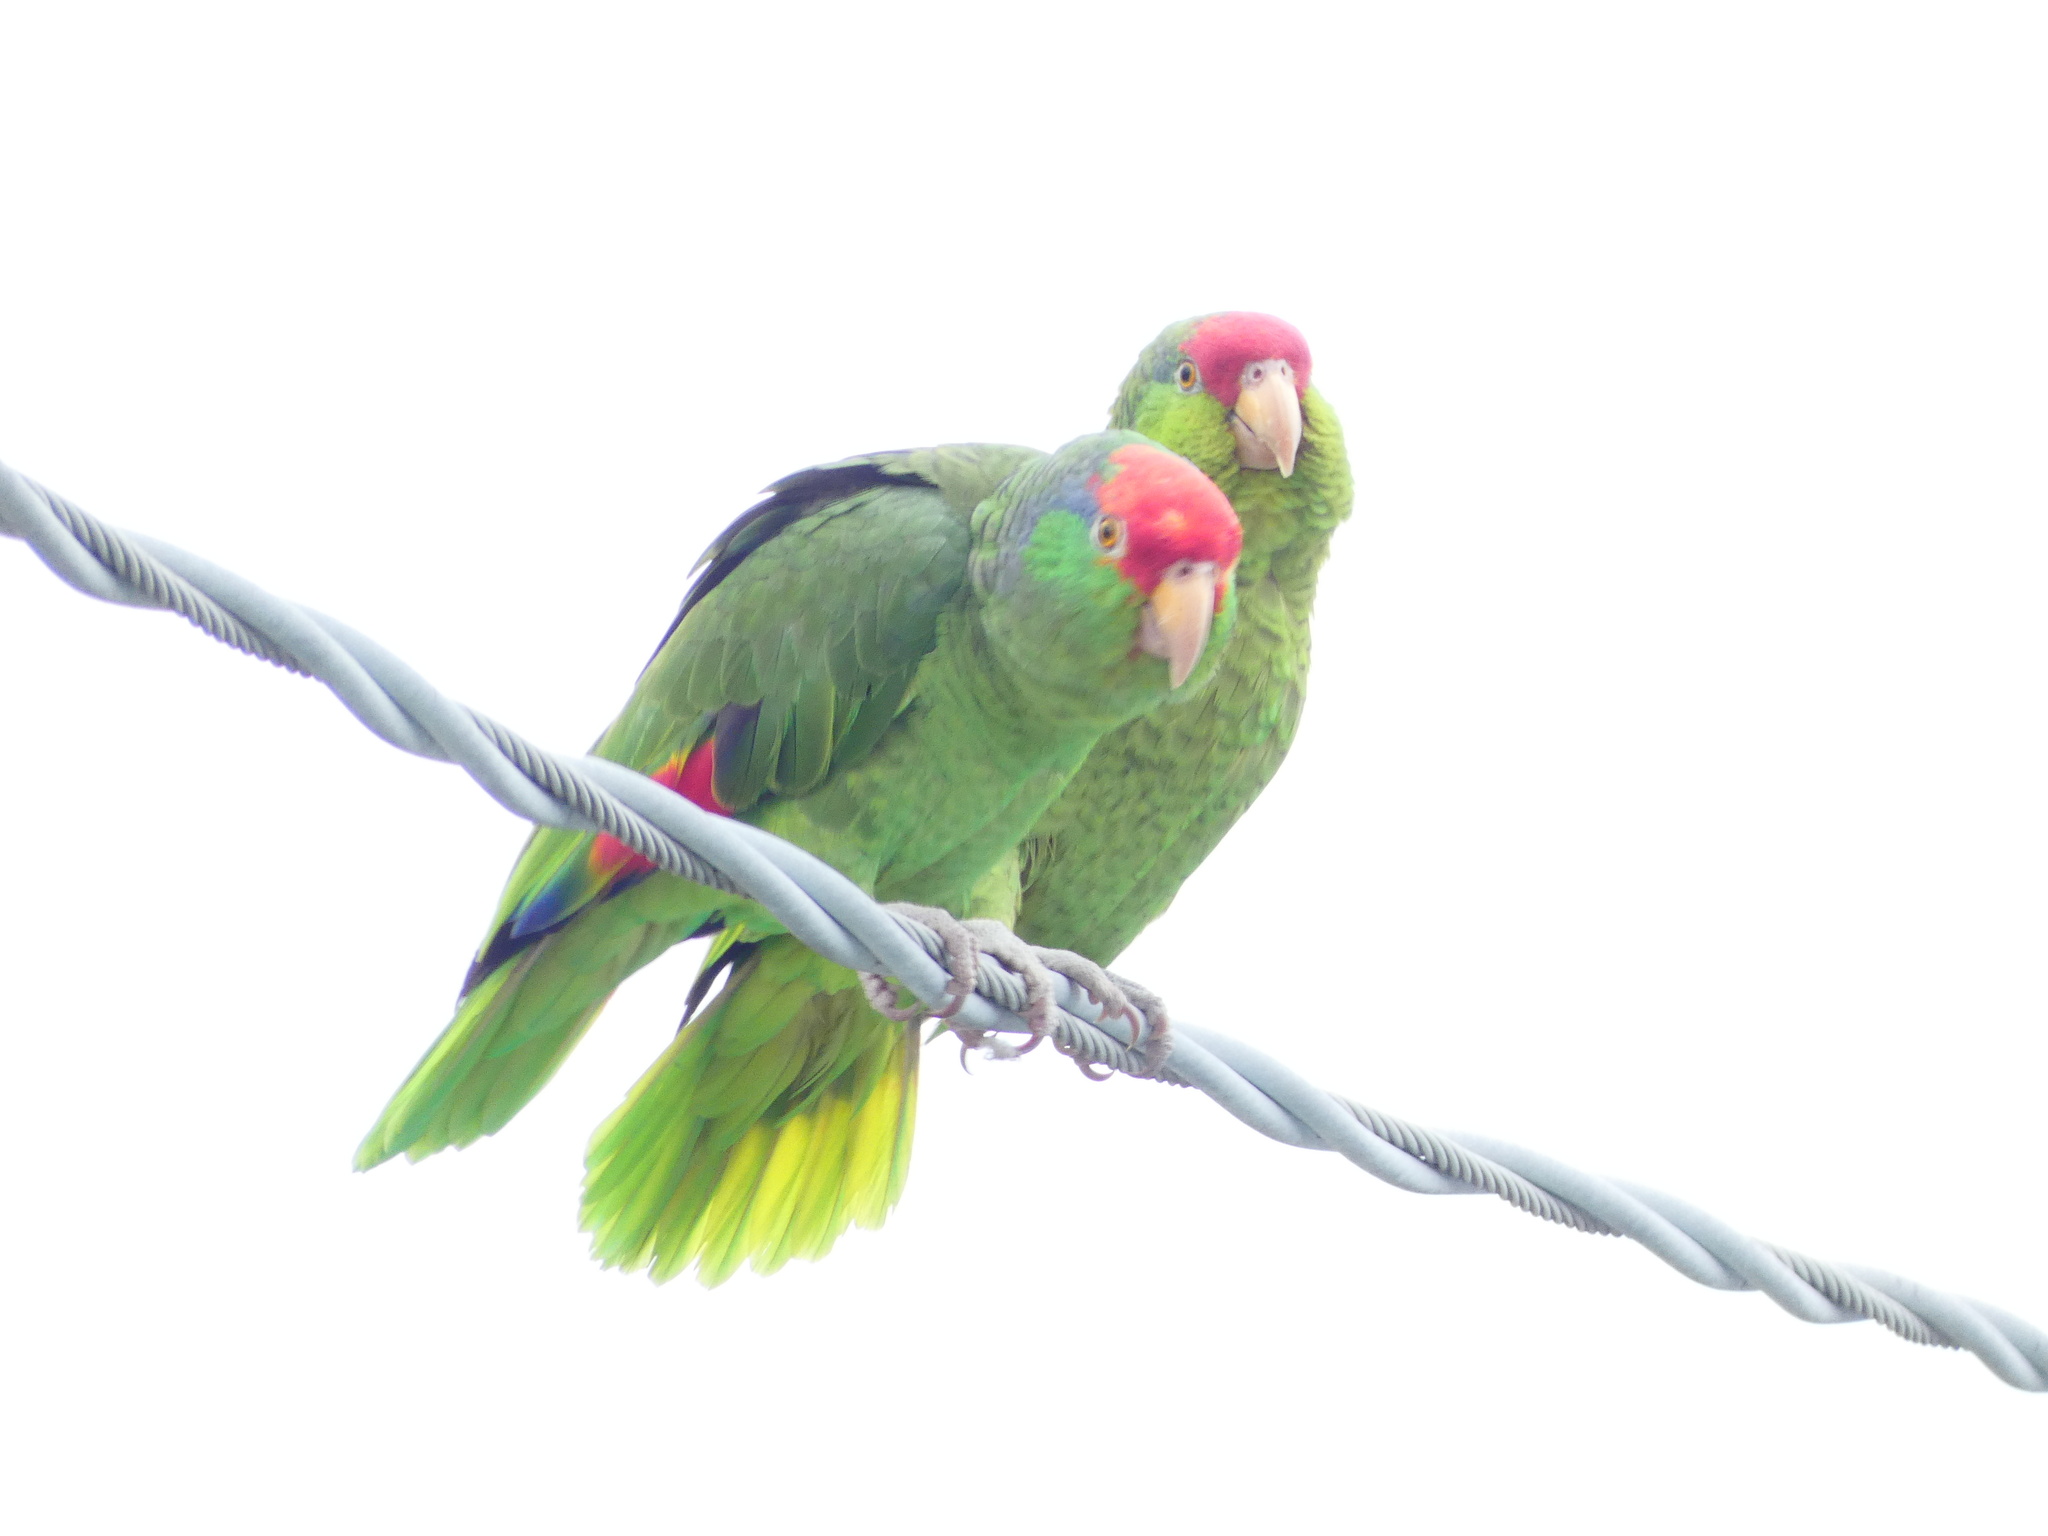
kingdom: Animalia
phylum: Chordata
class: Aves
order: Psittaciformes
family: Psittacidae
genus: Amazona
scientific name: Amazona viridigenalis
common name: Red-crowned amazon
